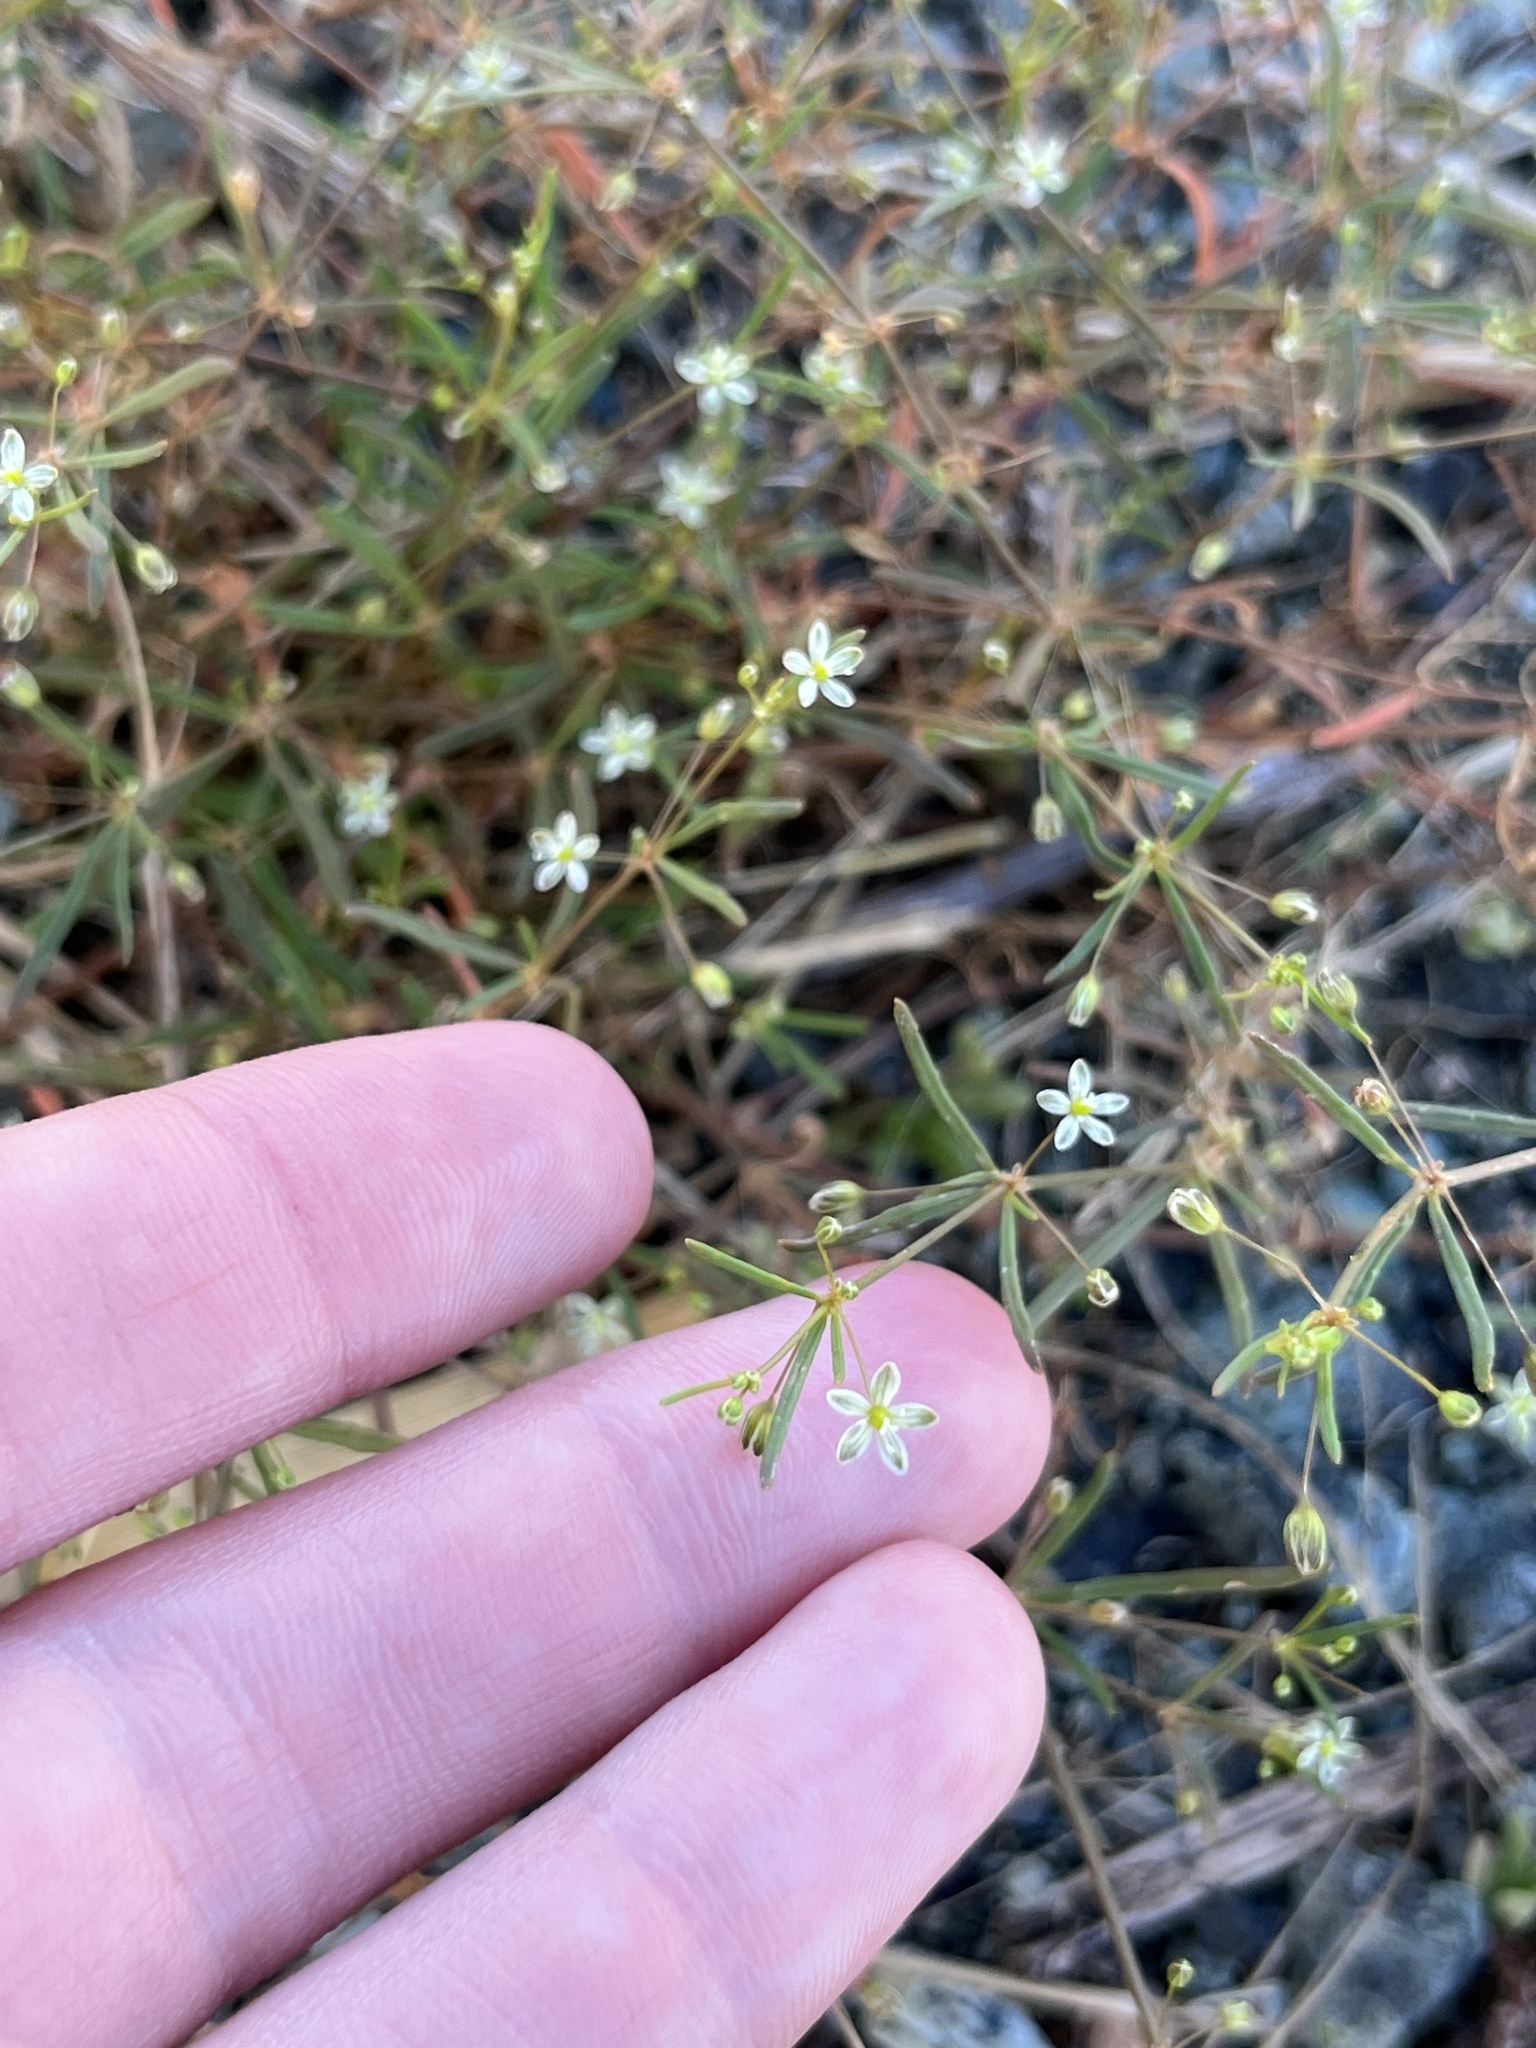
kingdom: Plantae
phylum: Tracheophyta
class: Magnoliopsida
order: Caryophyllales
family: Molluginaceae
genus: Mollugo
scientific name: Mollugo verticillata
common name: Green carpetweed
